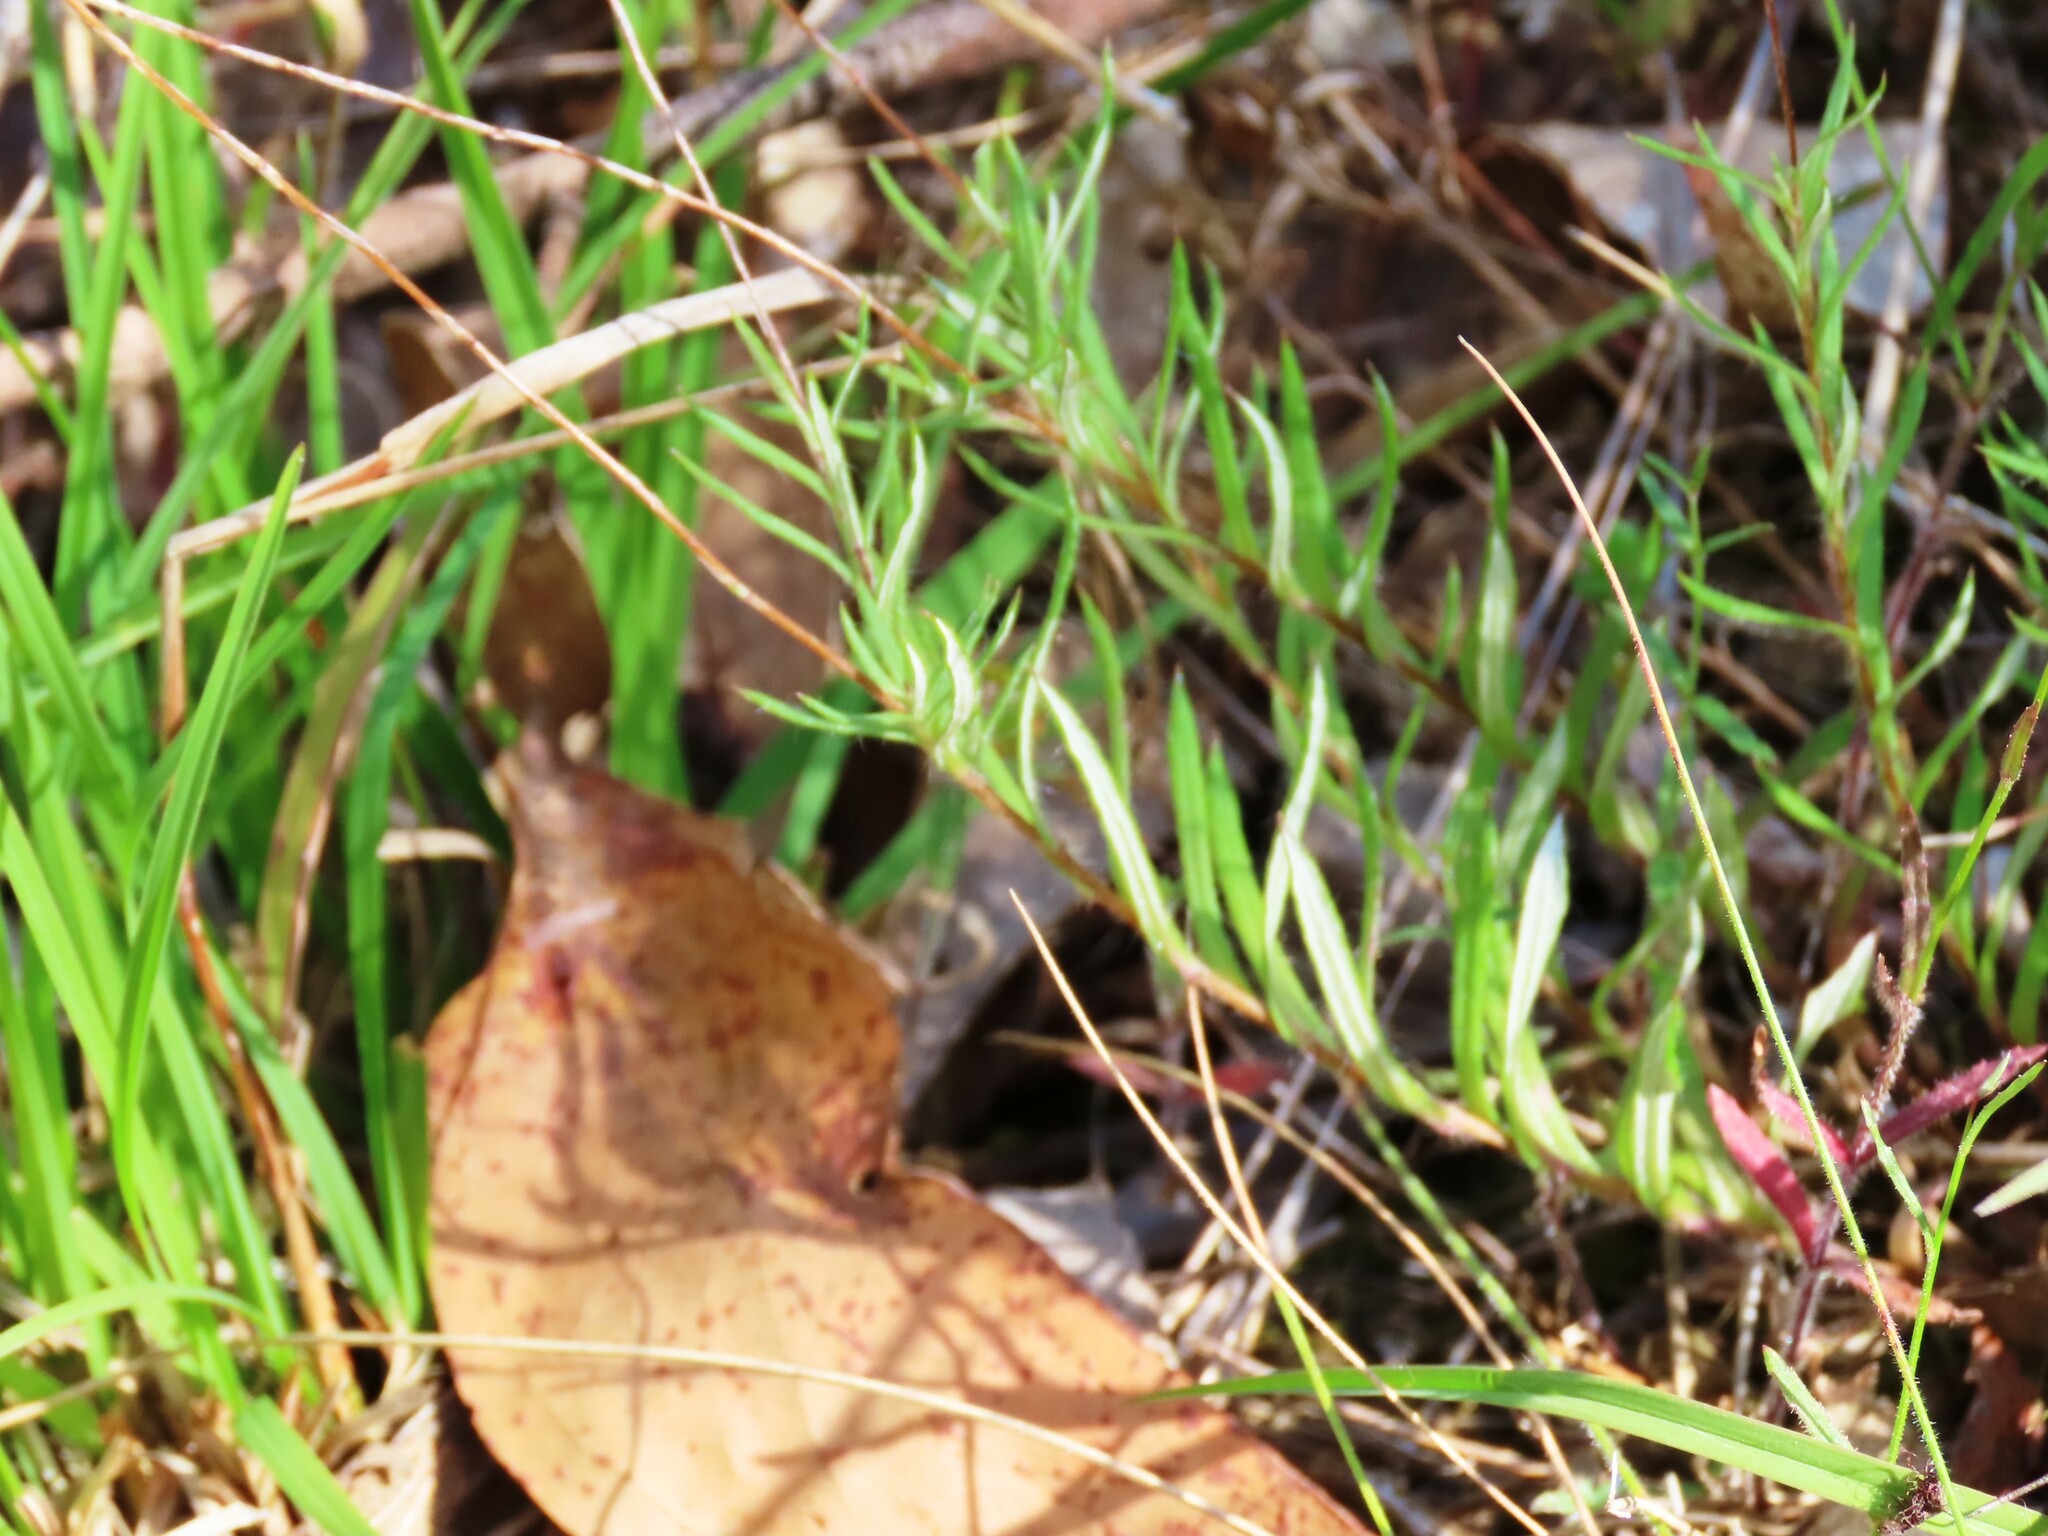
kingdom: Plantae
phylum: Tracheophyta
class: Magnoliopsida
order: Asterales
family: Asteraceae
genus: Leptorhynchos
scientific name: Leptorhynchos squamatus
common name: Scaly-buttons
